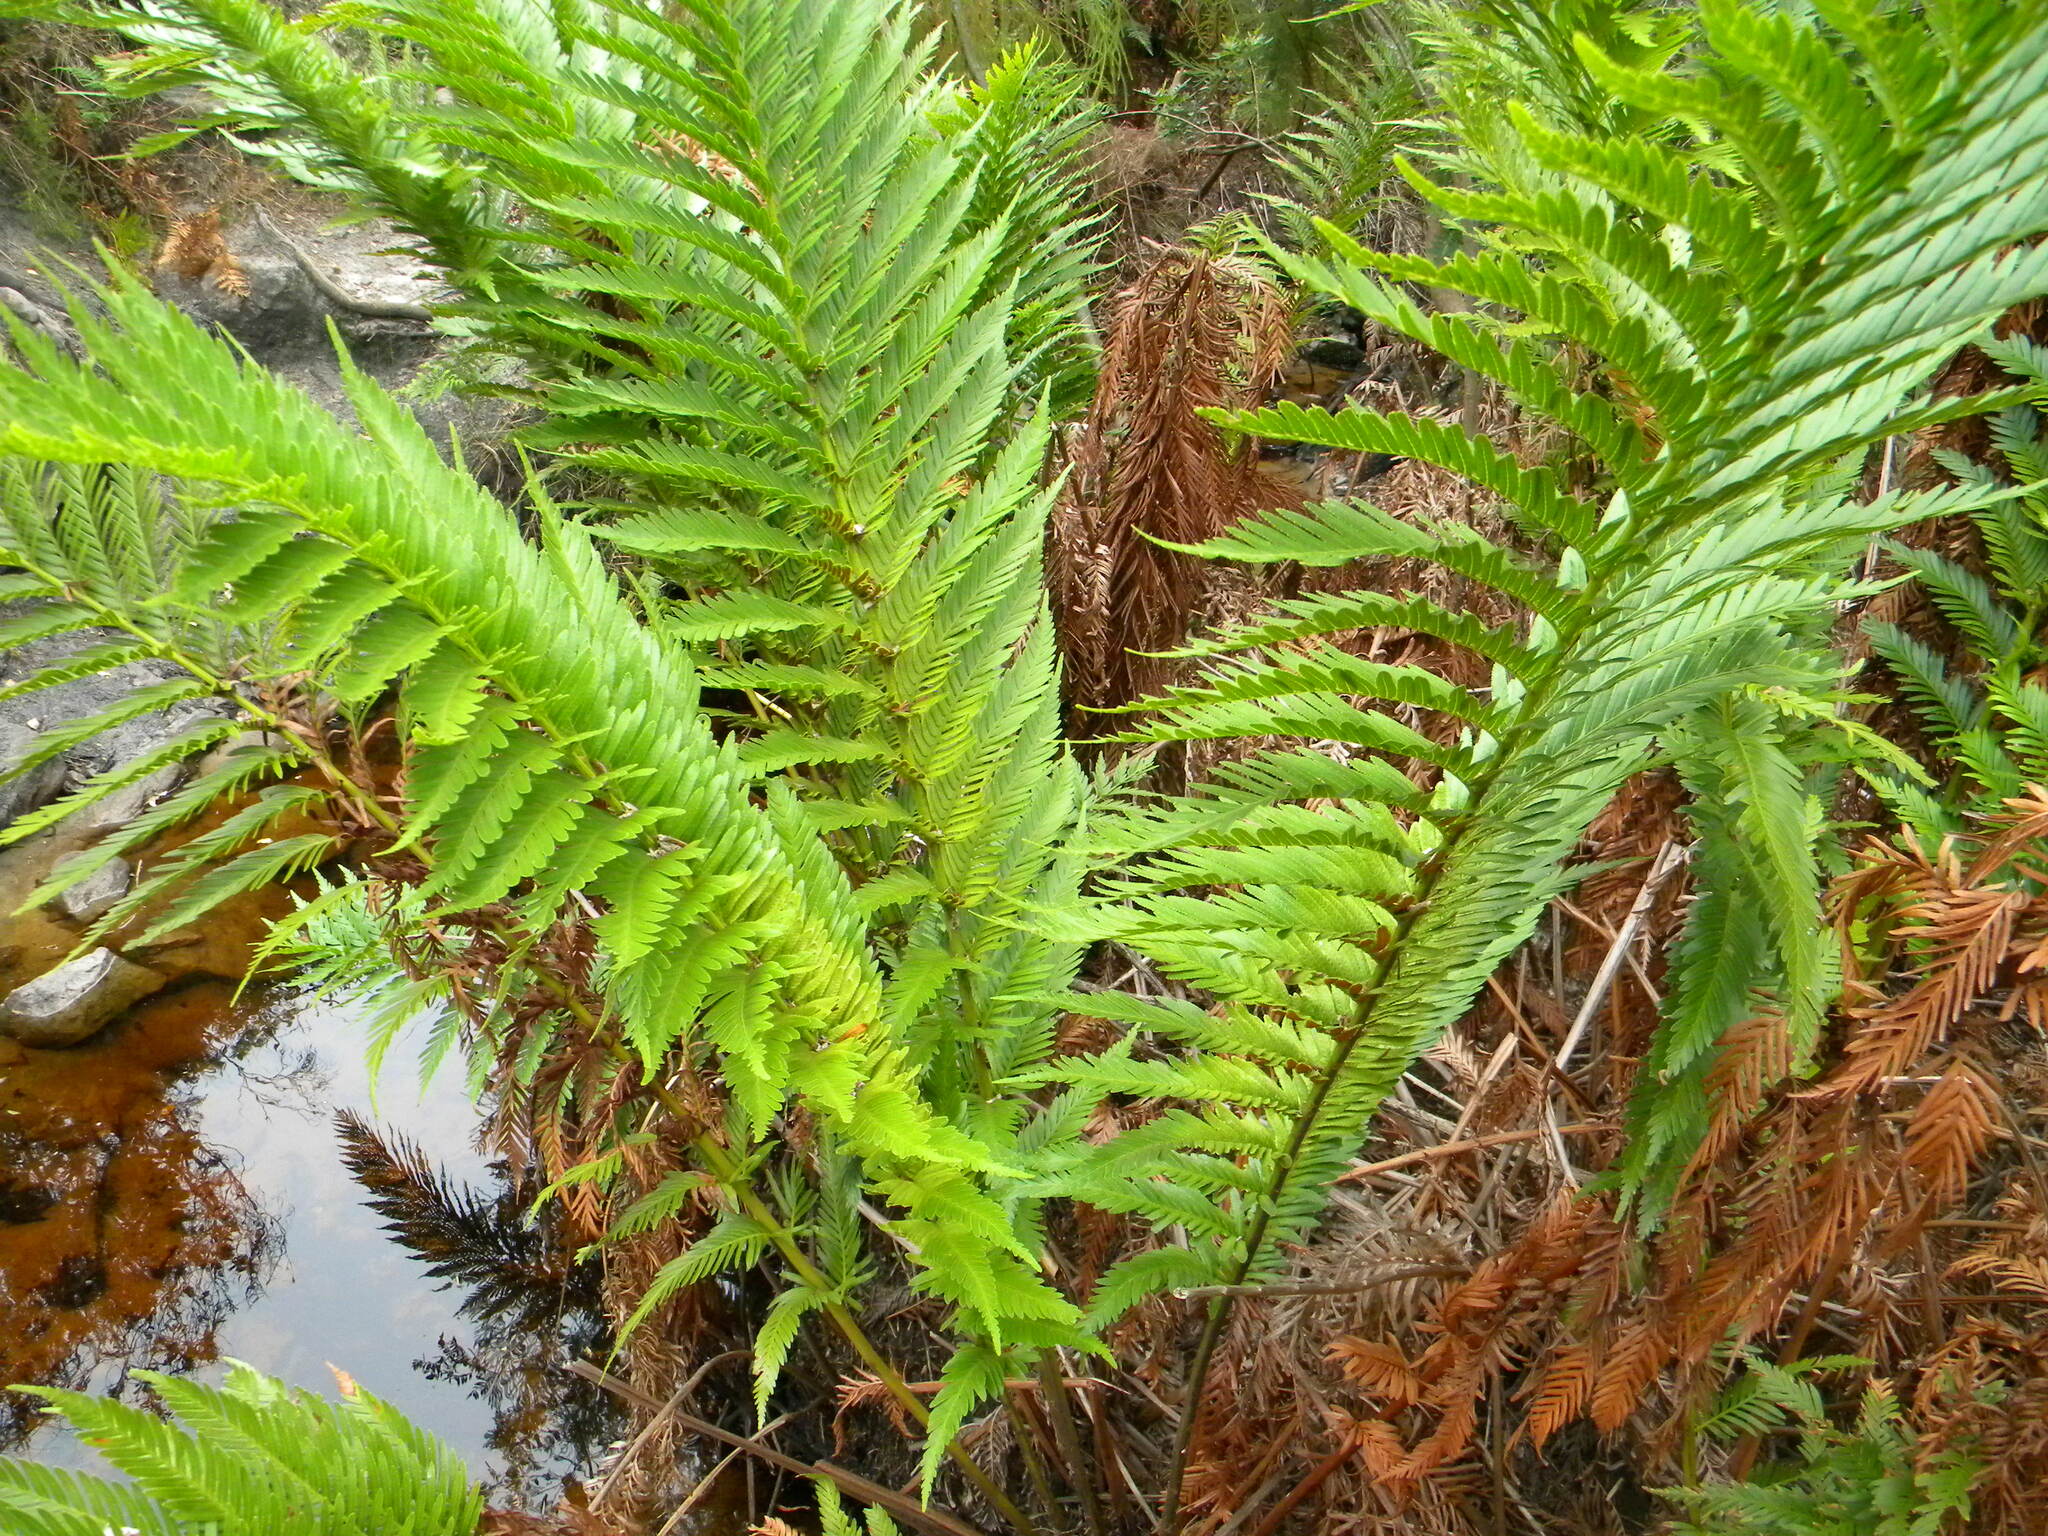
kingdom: Plantae
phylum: Tracheophyta
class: Polypodiopsida
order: Osmundales
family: Osmundaceae
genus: Todea
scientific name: Todea barbara
